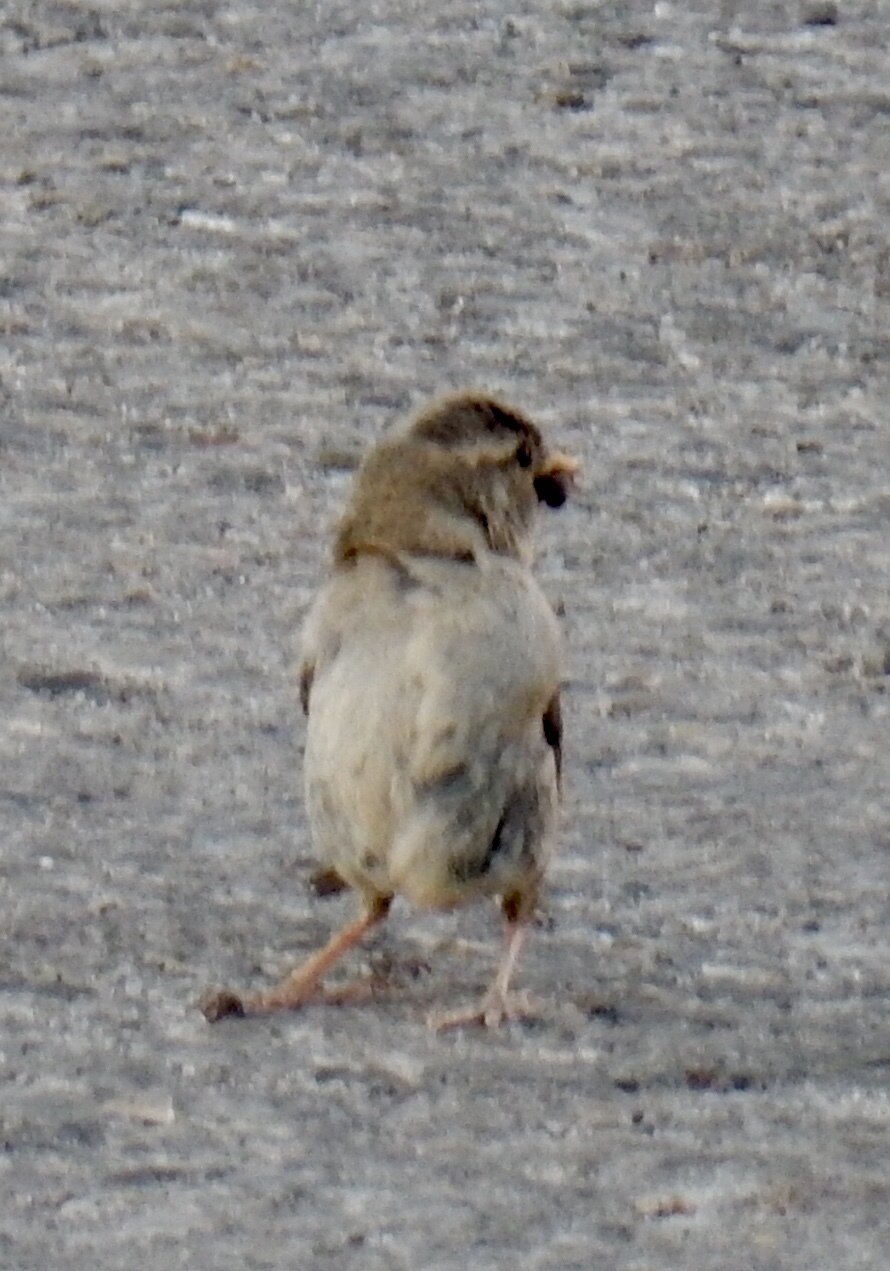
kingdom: Animalia
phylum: Chordata
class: Aves
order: Passeriformes
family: Passeridae
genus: Passer
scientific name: Passer domesticus
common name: House sparrow
